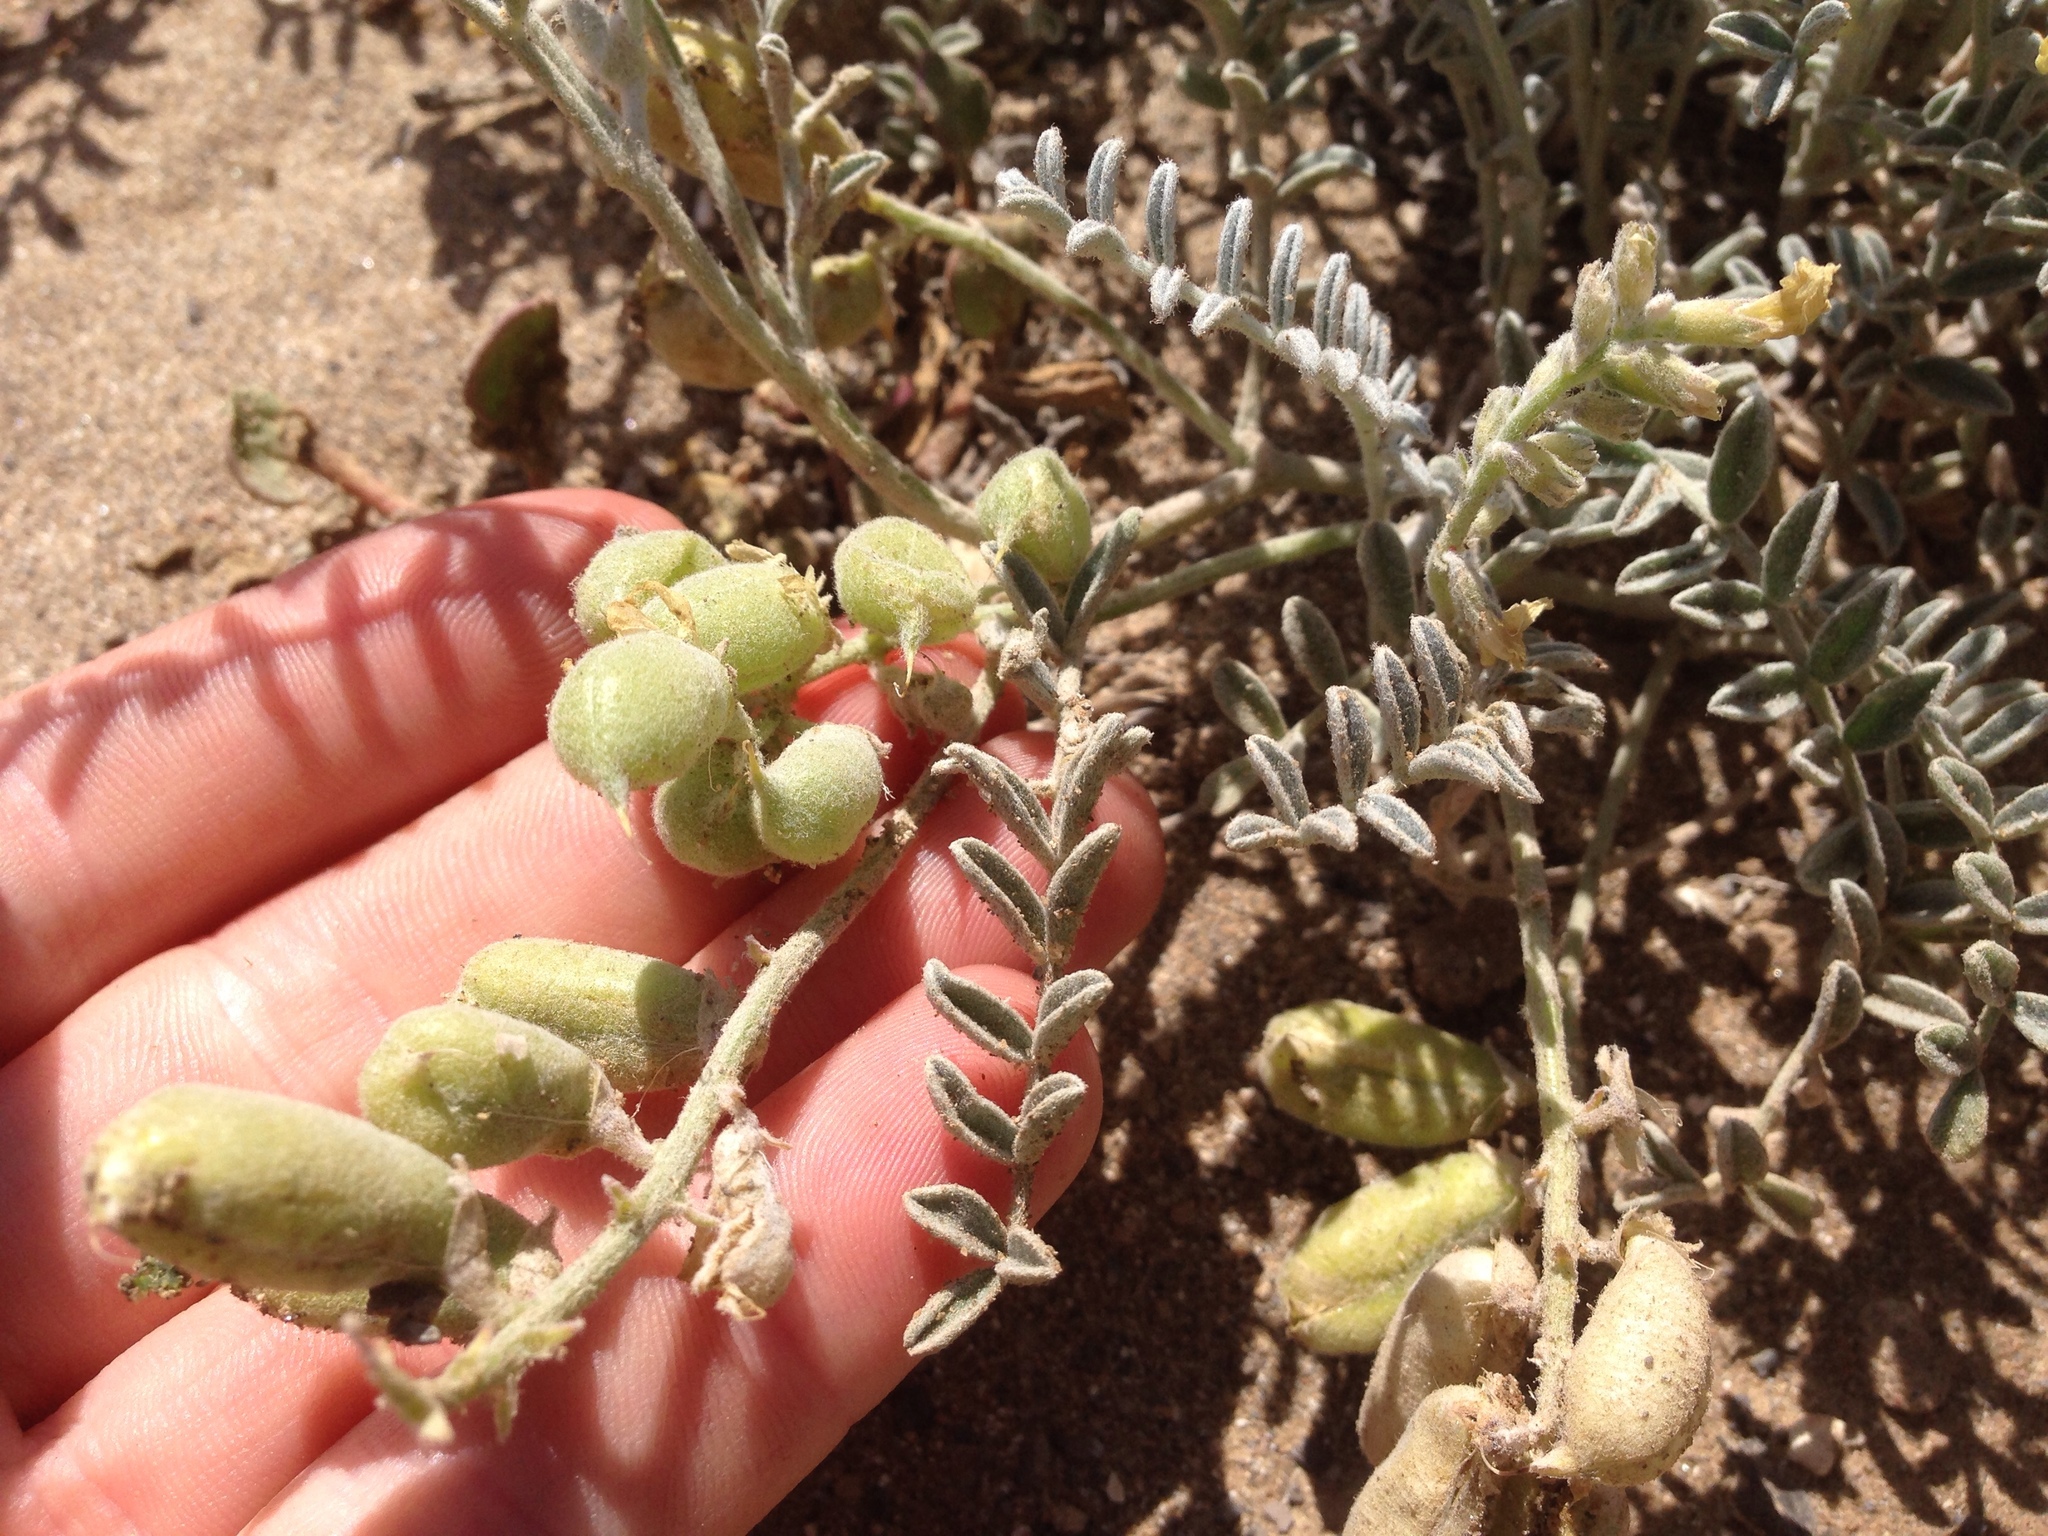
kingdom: Plantae
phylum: Tracheophyta
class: Magnoliopsida
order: Fabales
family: Fabaceae
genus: Astragalus
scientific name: Astragalus miguelensis
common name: San miguel milk-vetch
